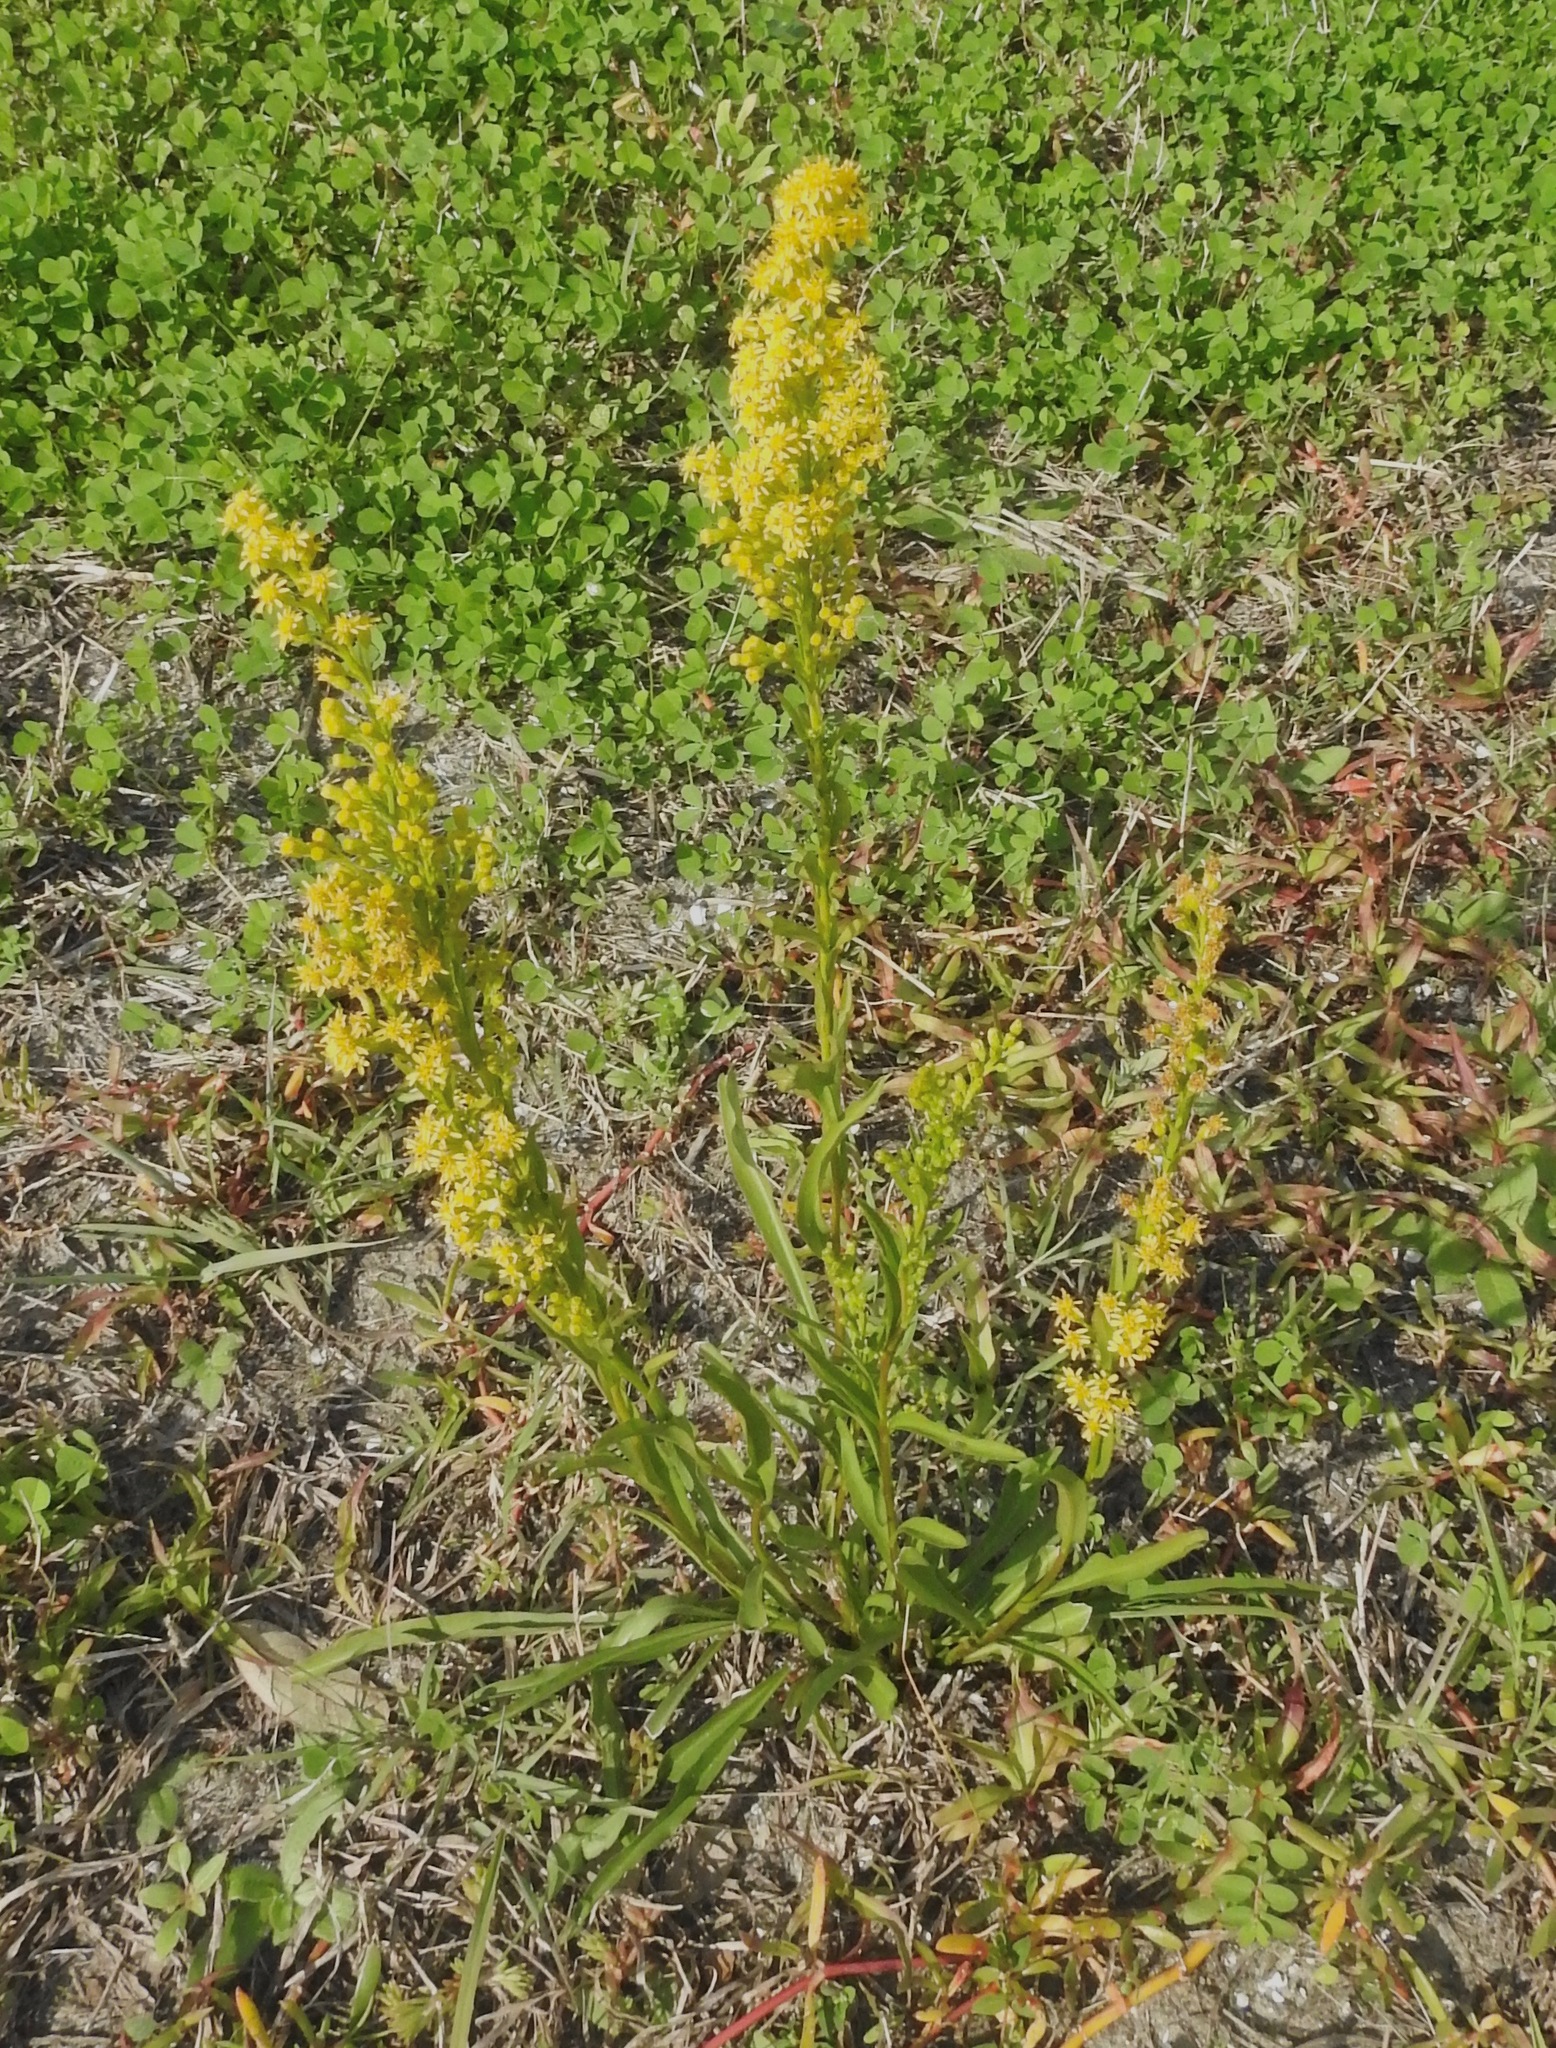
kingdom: Plantae
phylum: Tracheophyta
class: Magnoliopsida
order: Asterales
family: Asteraceae
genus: Solidago
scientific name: Solidago mexicana
